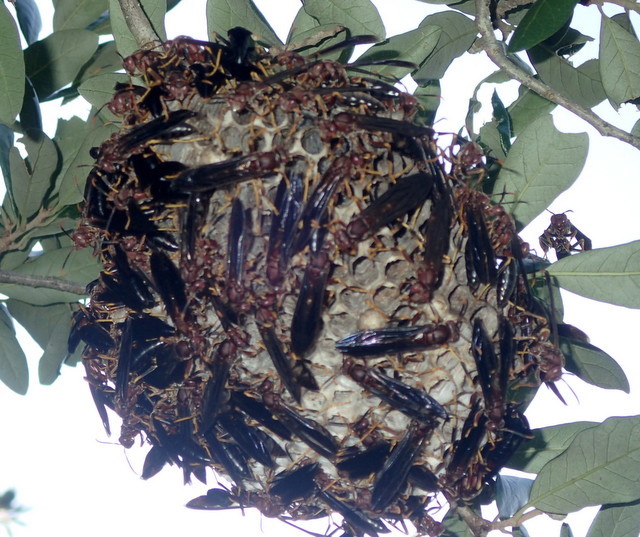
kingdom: Animalia
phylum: Arthropoda
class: Insecta
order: Hymenoptera
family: Eumenidae
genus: Polistes
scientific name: Polistes annularis
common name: Ringed paper wasp
